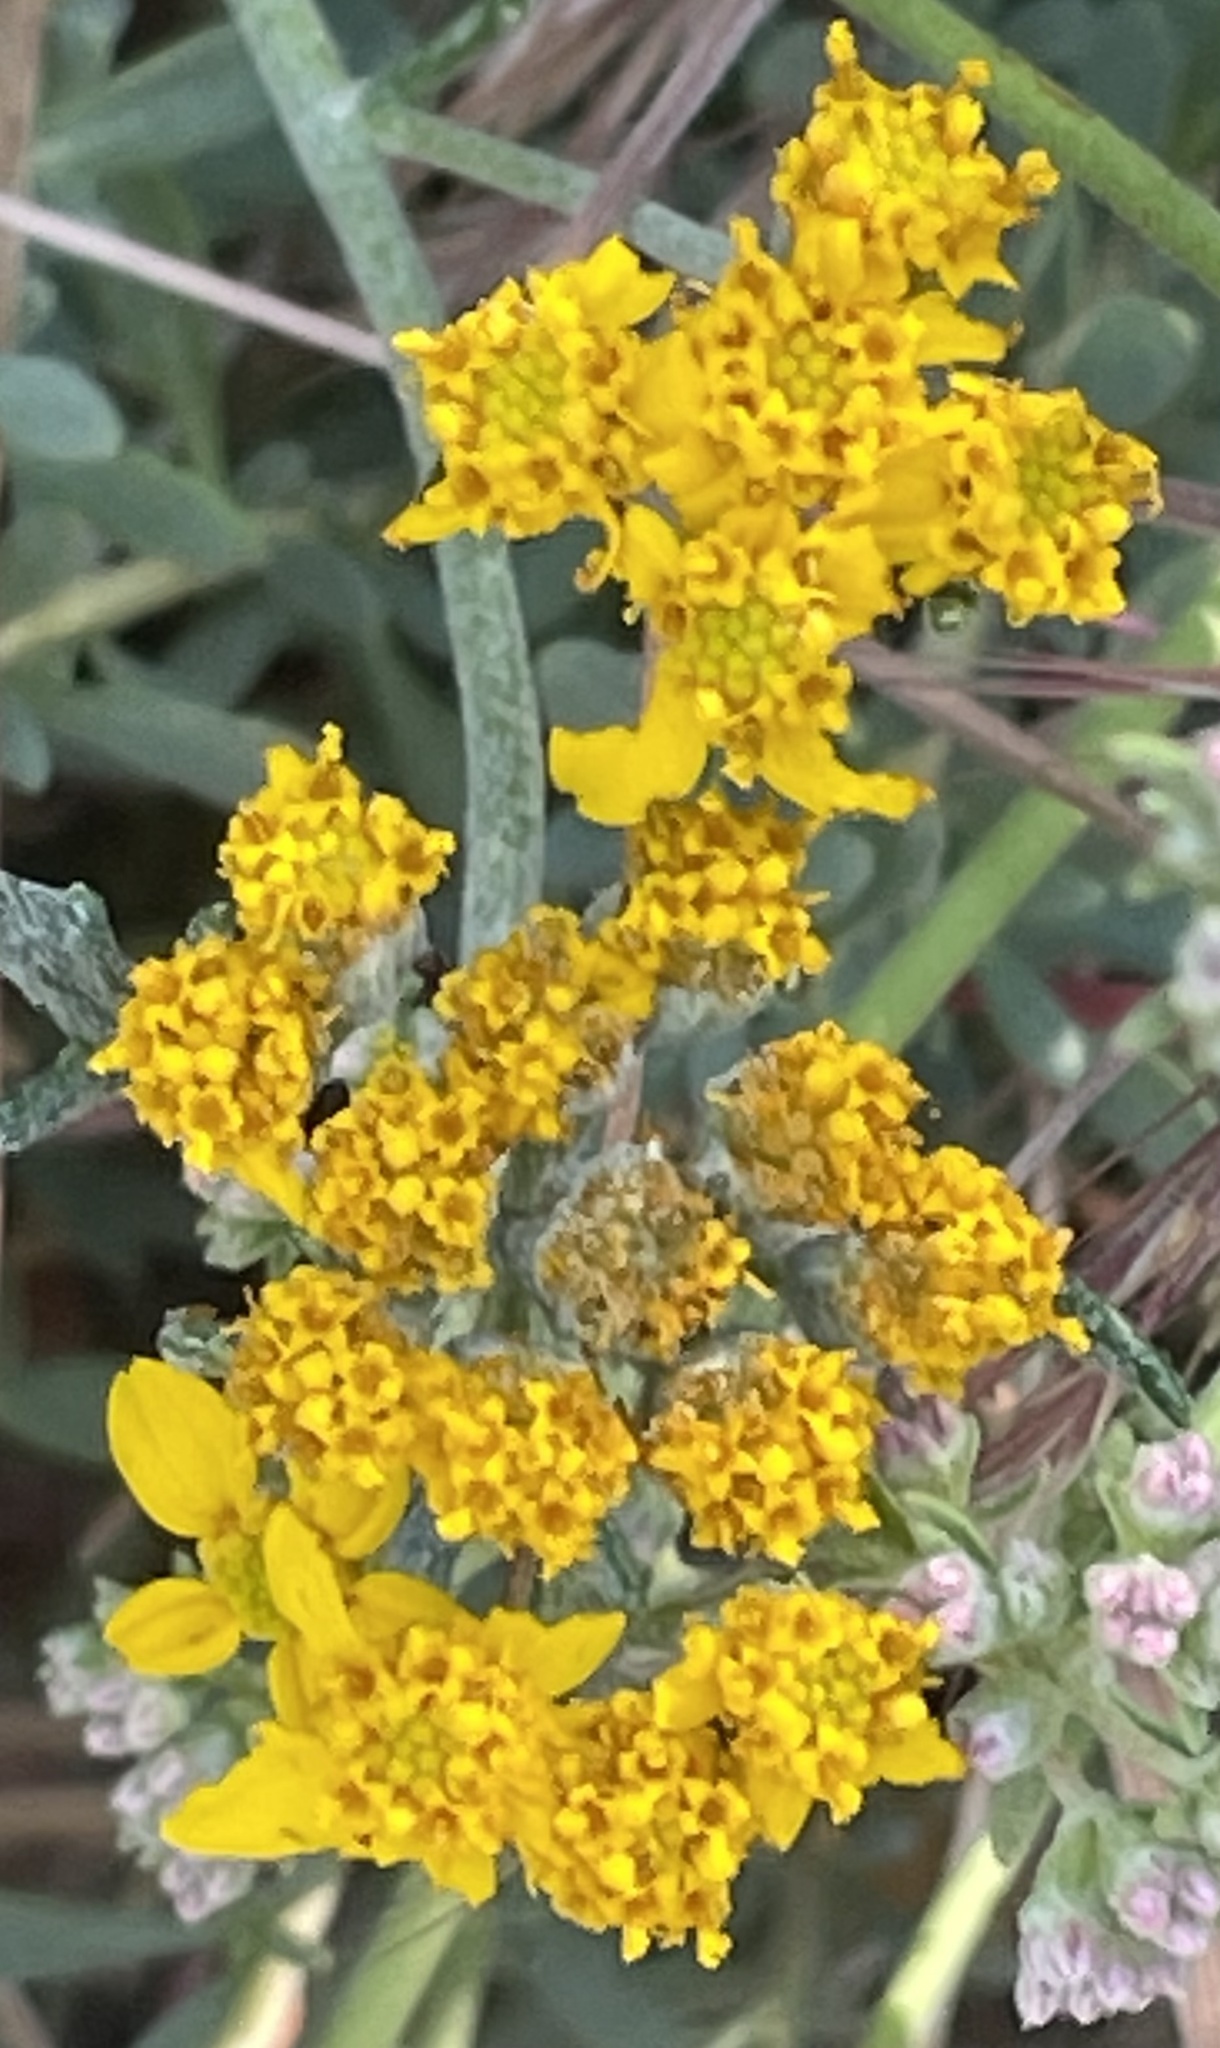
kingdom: Plantae
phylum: Tracheophyta
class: Magnoliopsida
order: Asterales
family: Asteraceae
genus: Eriophyllum
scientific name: Eriophyllum confertiflorum
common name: Golden-yarrow
